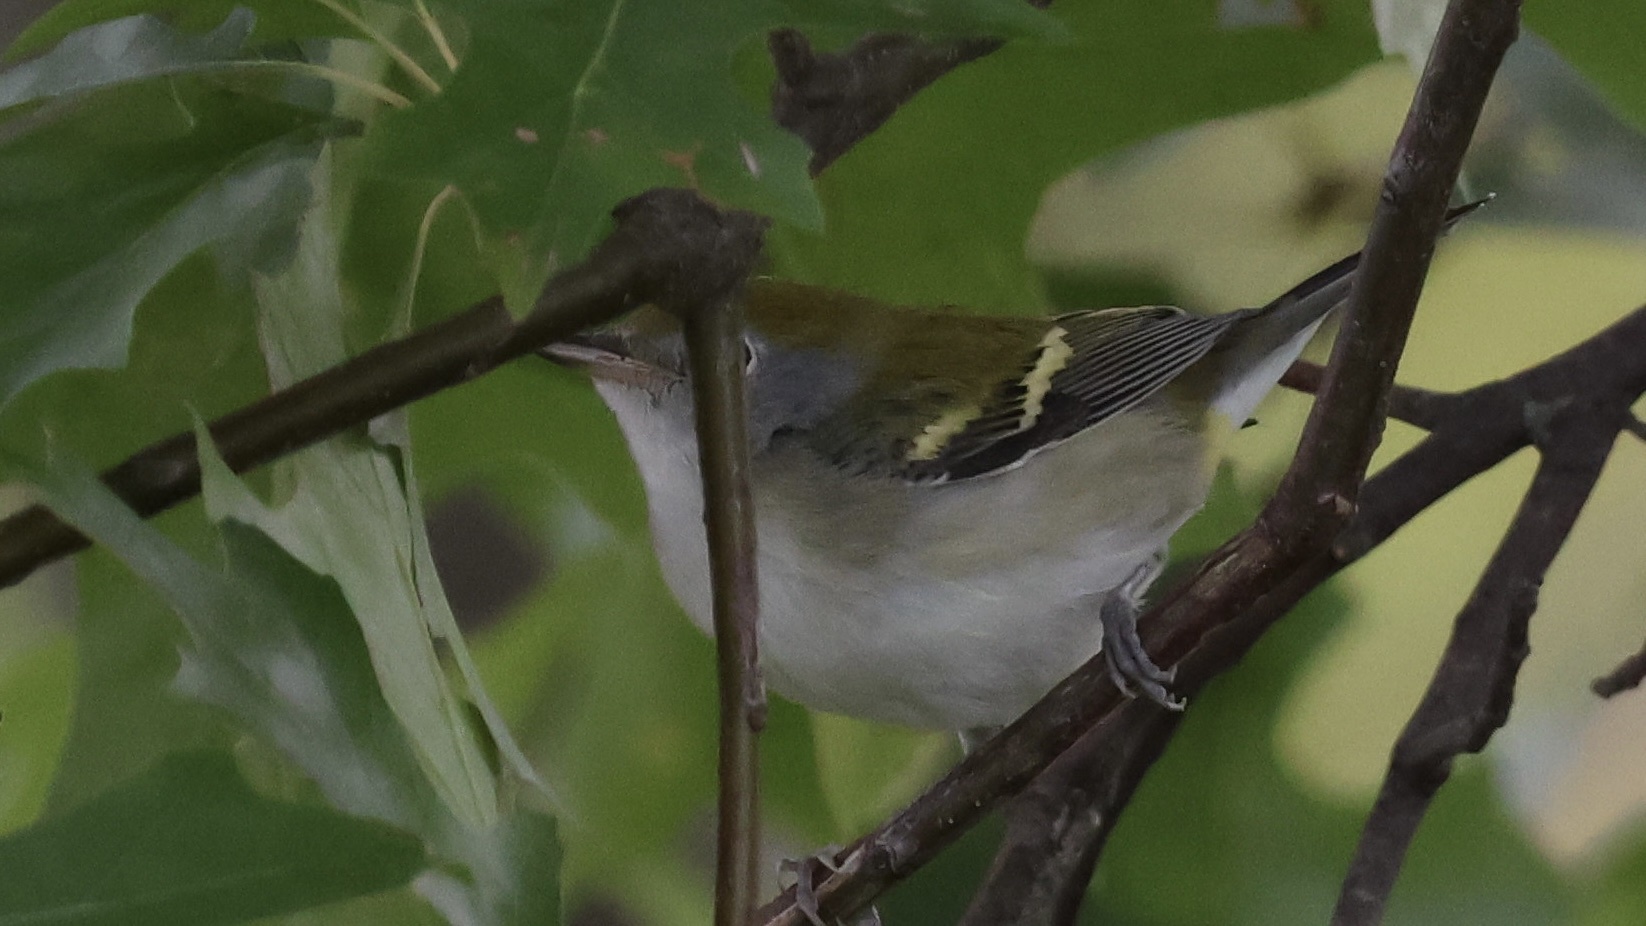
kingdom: Animalia
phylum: Chordata
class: Aves
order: Passeriformes
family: Parulidae
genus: Setophaga
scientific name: Setophaga pensylvanica
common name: Chestnut-sided warbler
